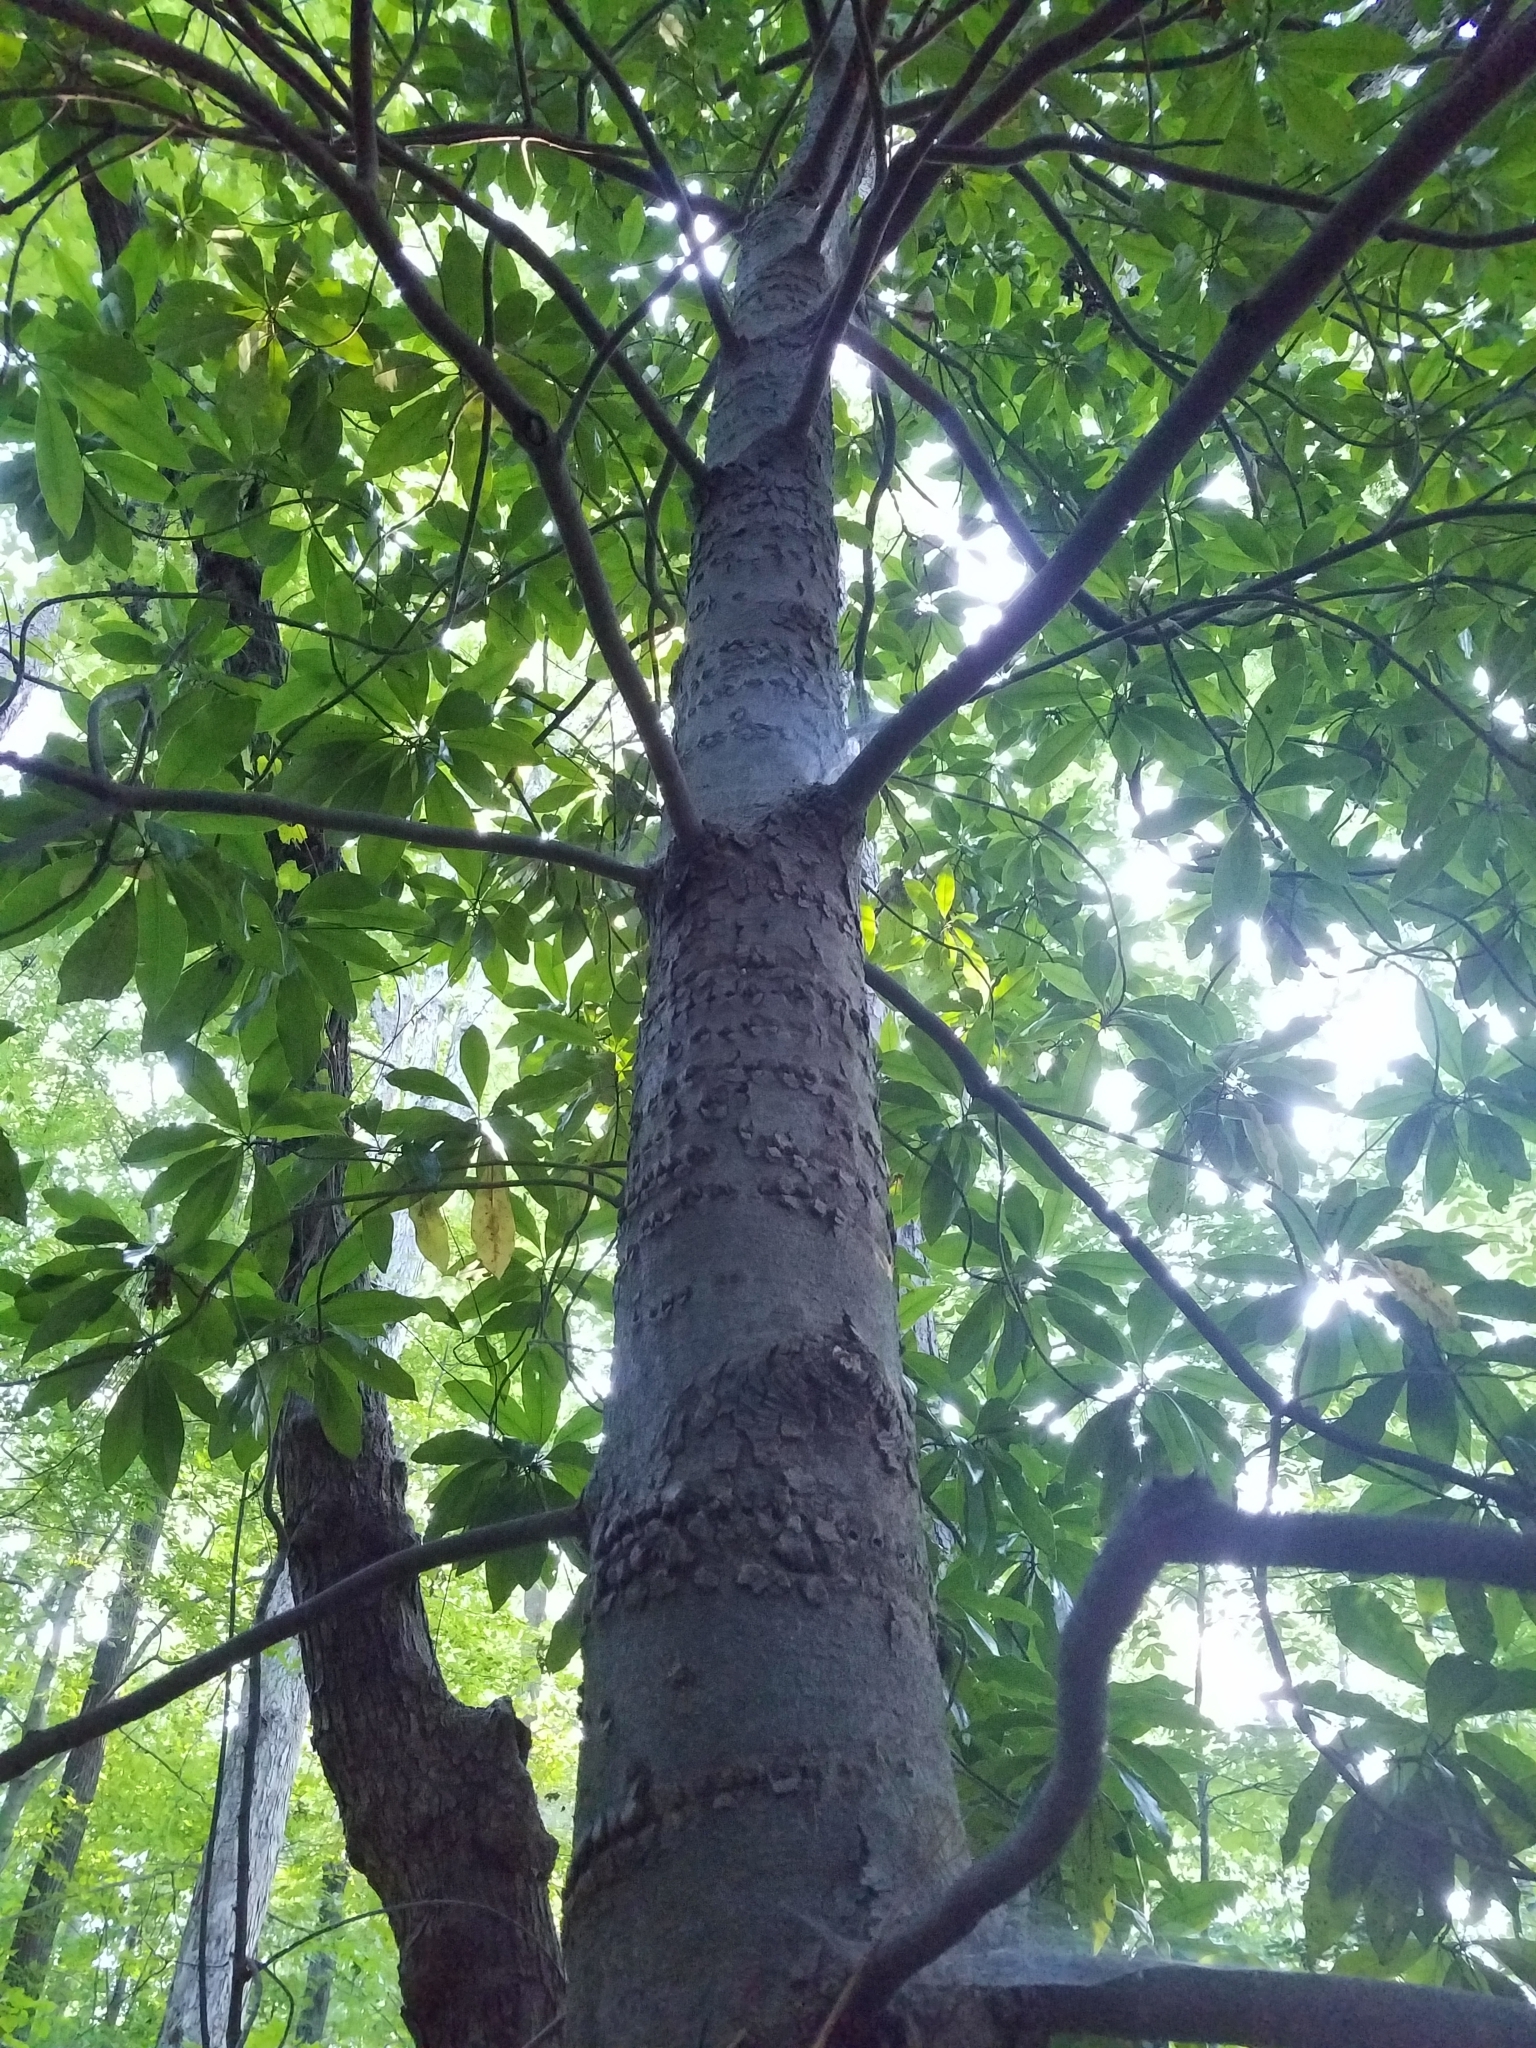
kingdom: Plantae
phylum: Tracheophyta
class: Magnoliopsida
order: Magnoliales
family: Magnoliaceae
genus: Magnolia
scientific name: Magnolia grandiflora
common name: Southern magnolia
